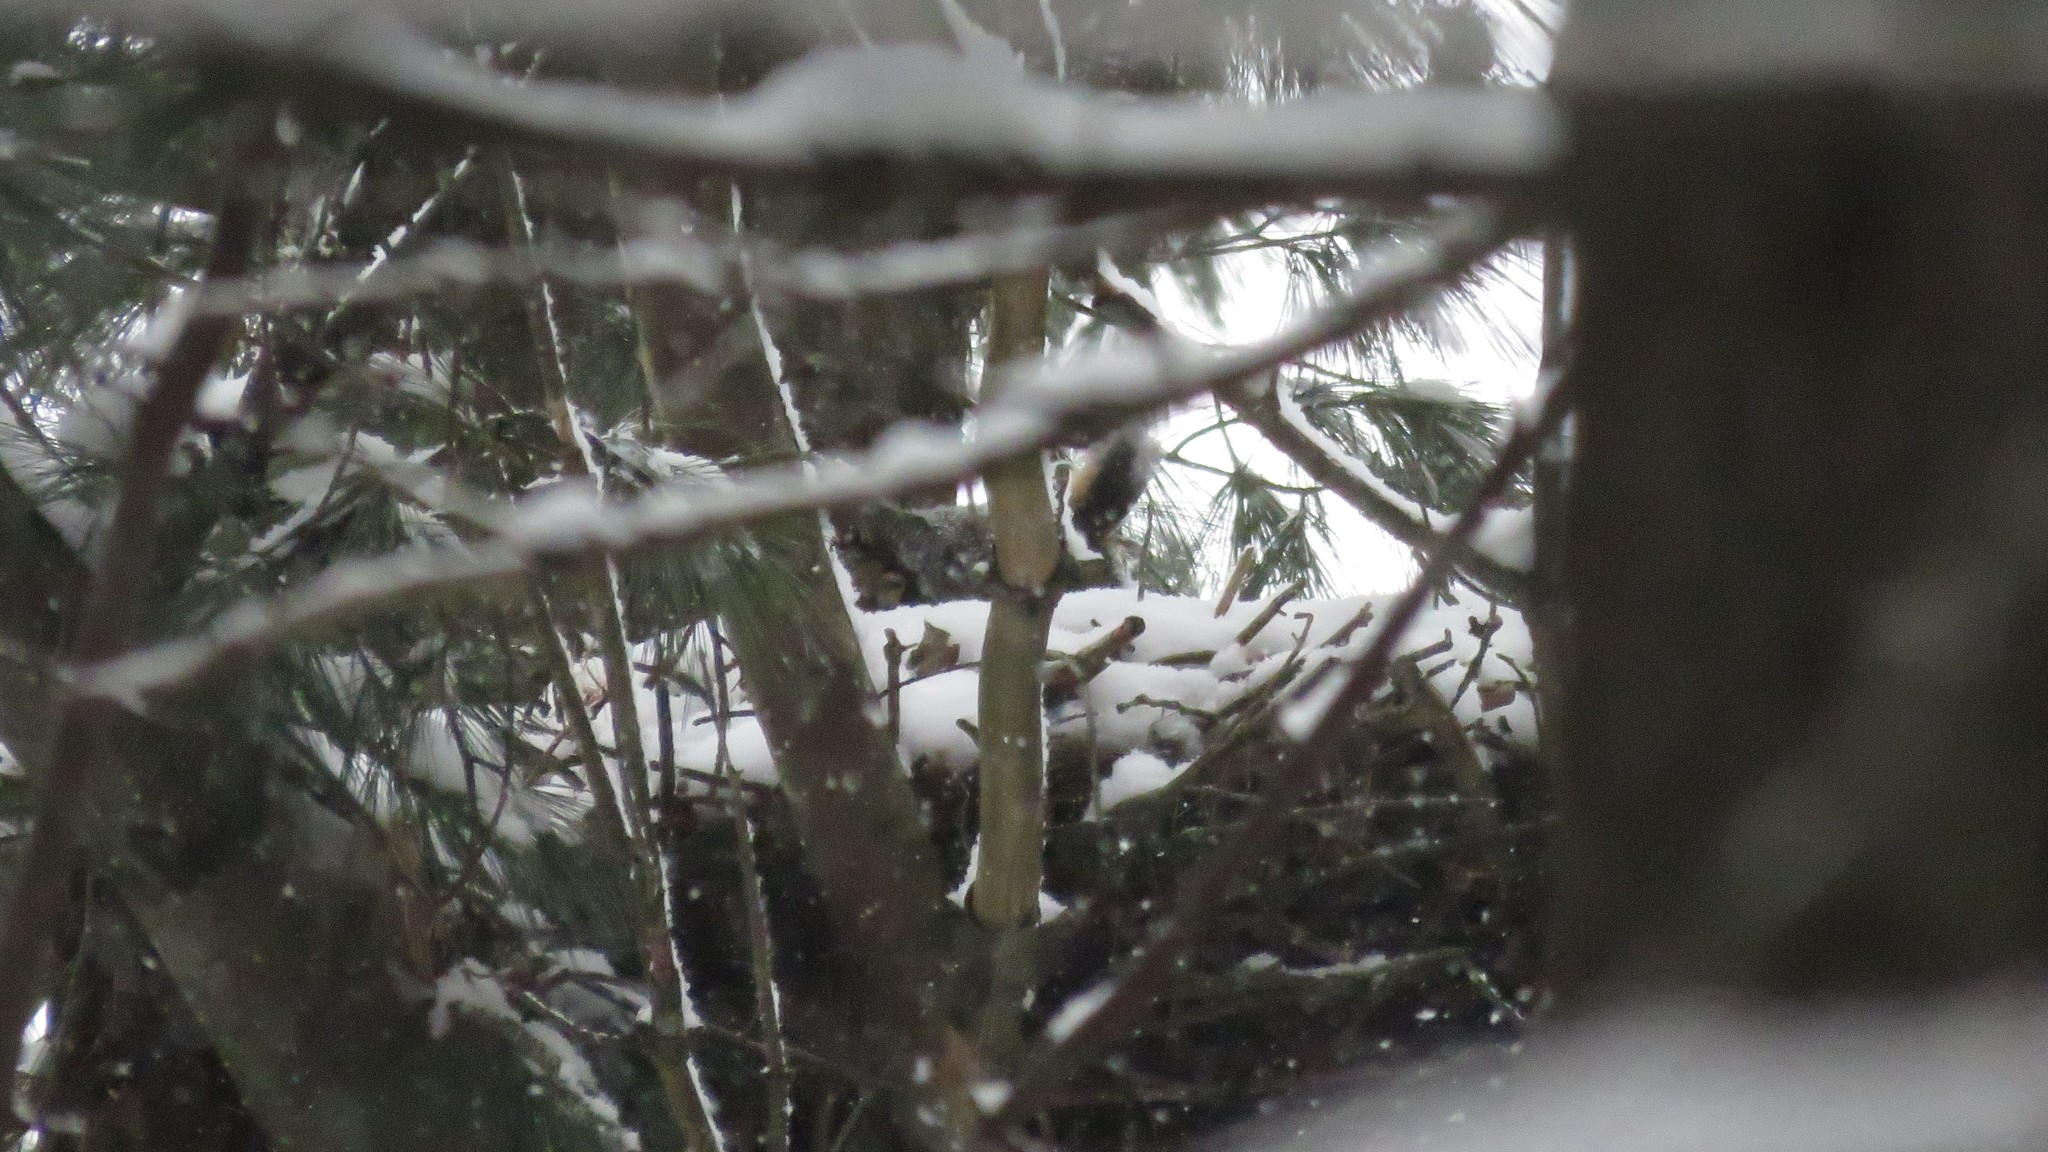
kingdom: Animalia
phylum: Chordata
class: Aves
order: Strigiformes
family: Strigidae
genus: Bubo
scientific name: Bubo virginianus
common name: Great horned owl
